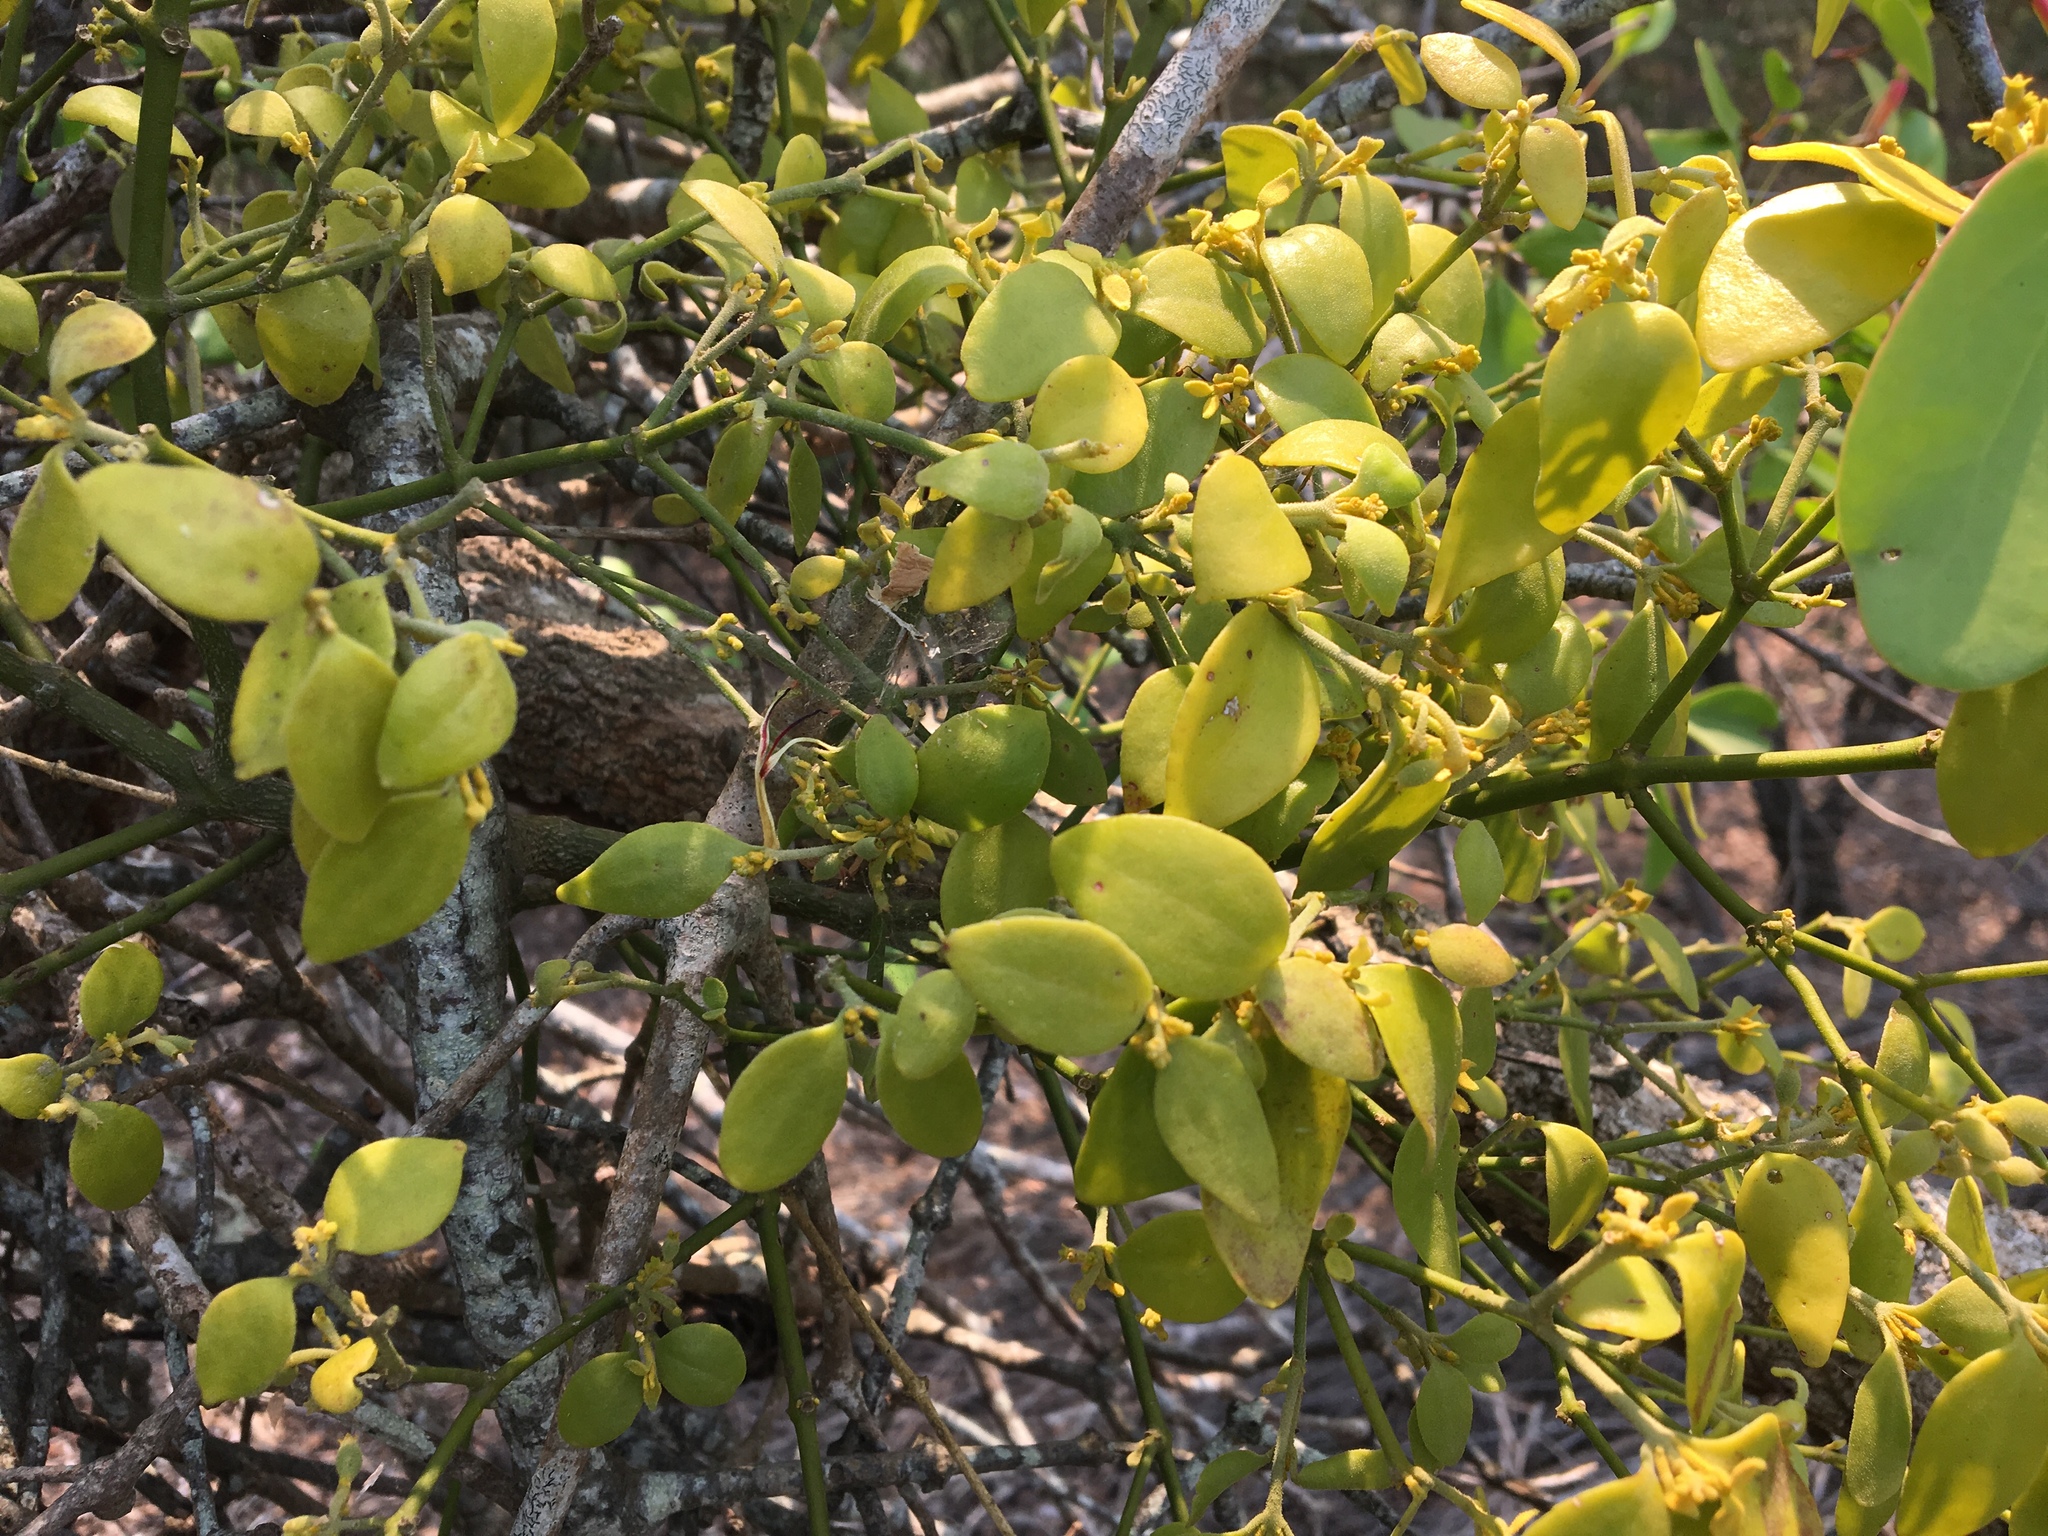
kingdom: Plantae
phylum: Tracheophyta
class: Magnoliopsida
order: Santalales
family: Viscaceae
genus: Notothixos
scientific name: Notothixos subaureus
